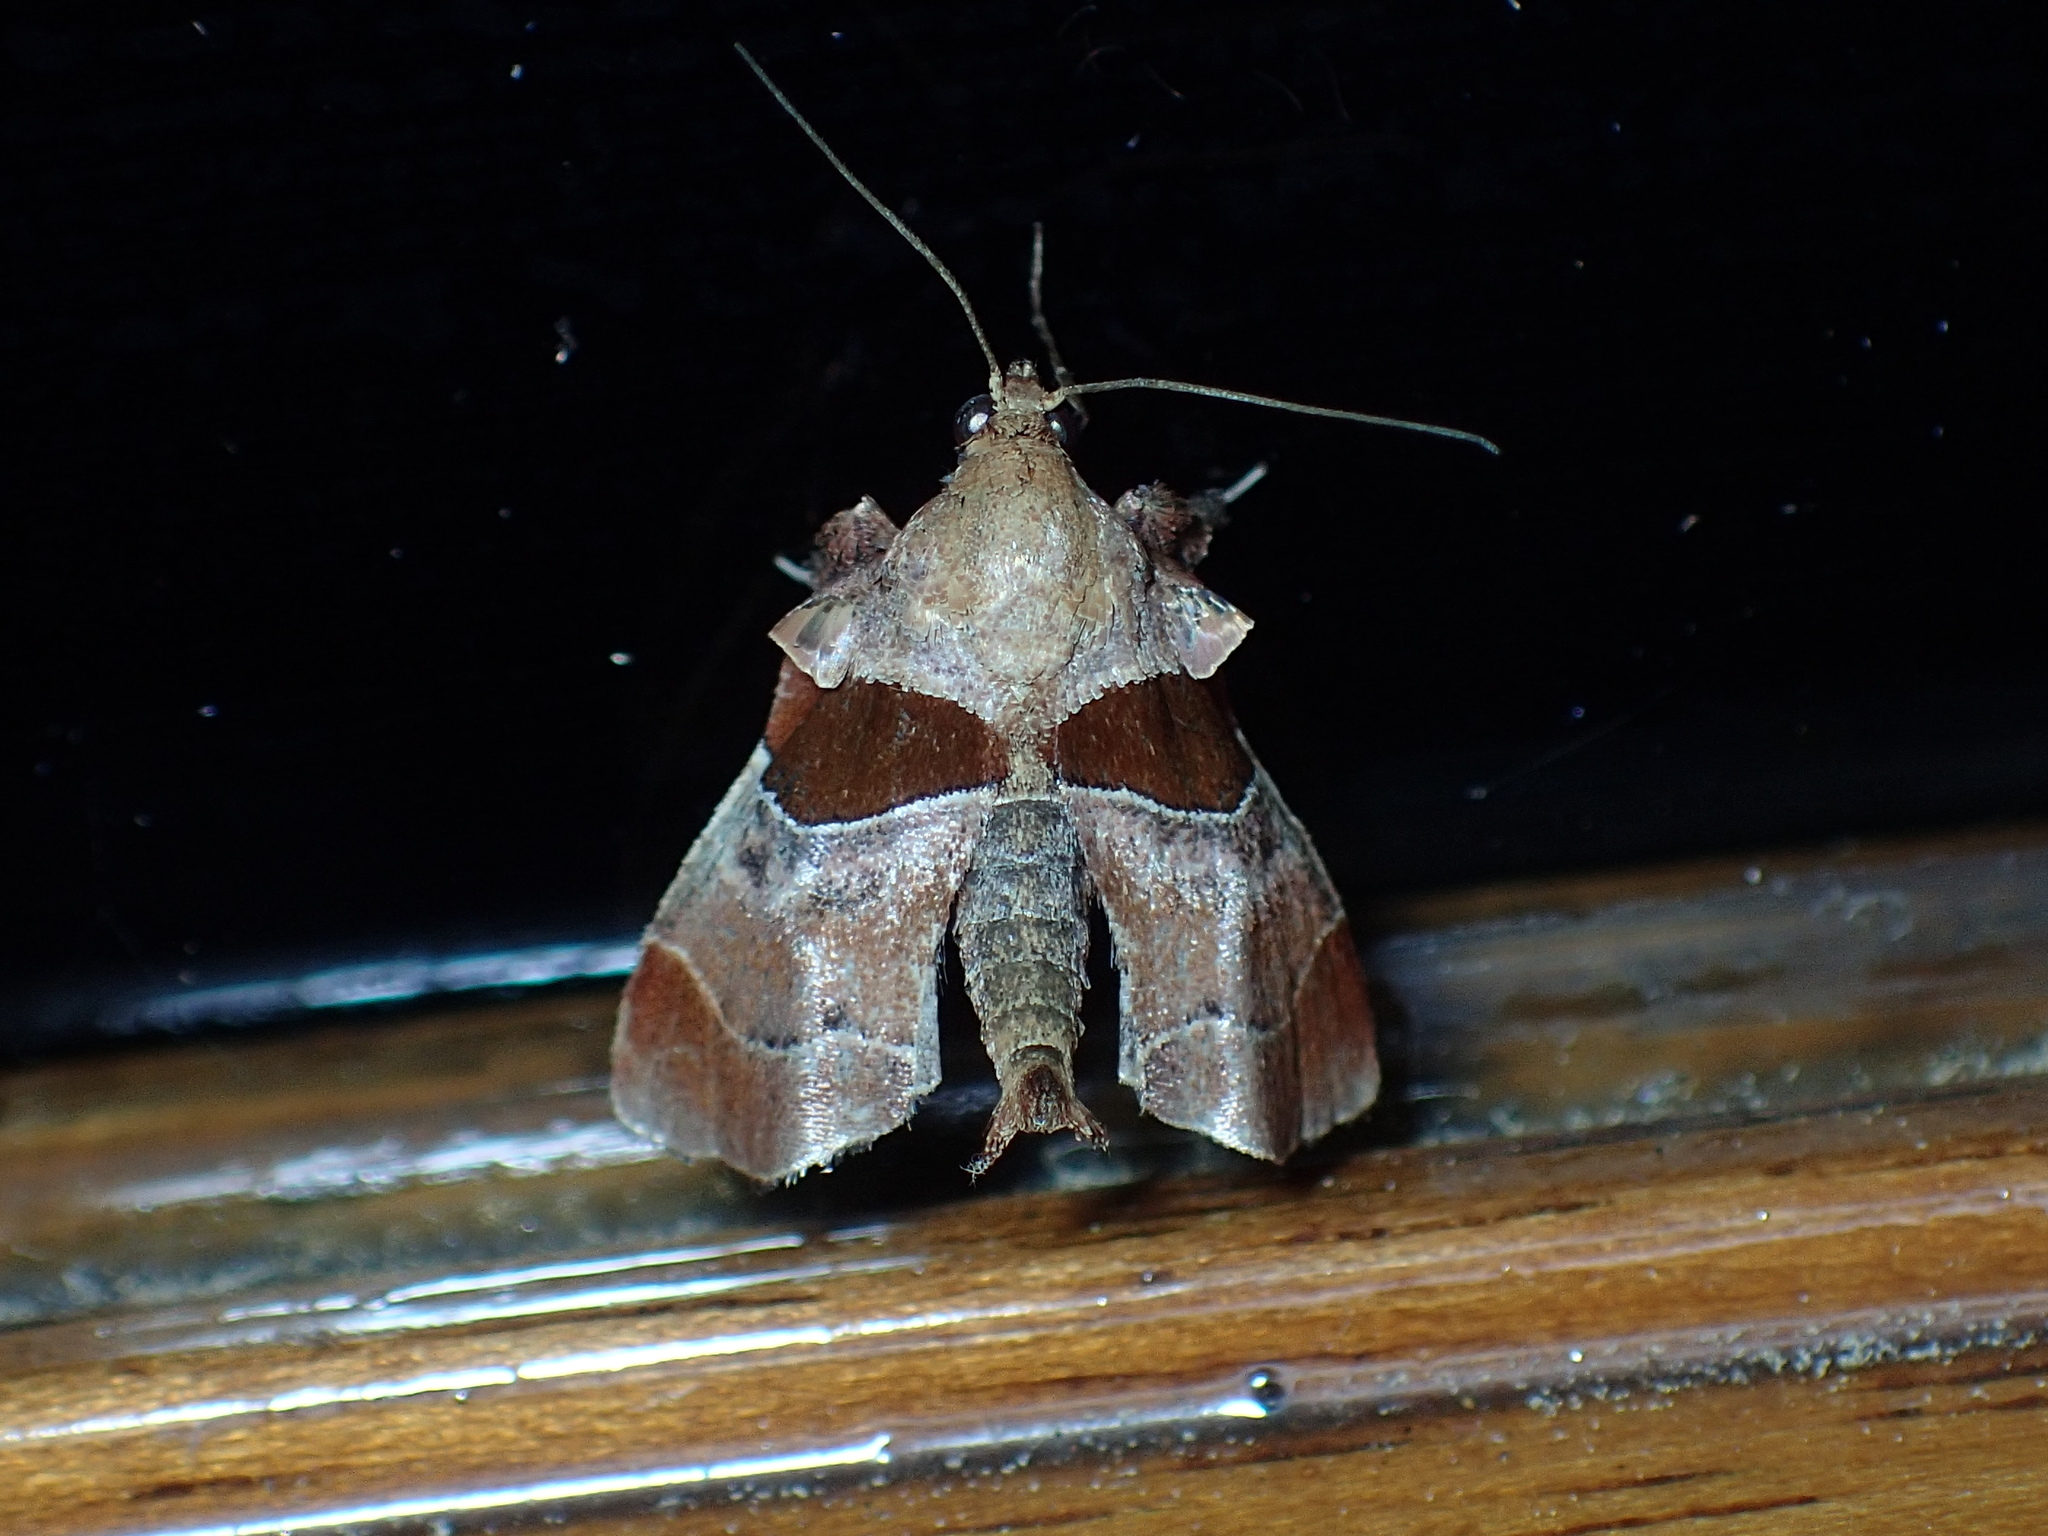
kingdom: Animalia
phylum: Arthropoda
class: Insecta
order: Lepidoptera
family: Pyralidae
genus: Tosale
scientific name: Tosale oviplagalis
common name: Dimorphic tosale moth
